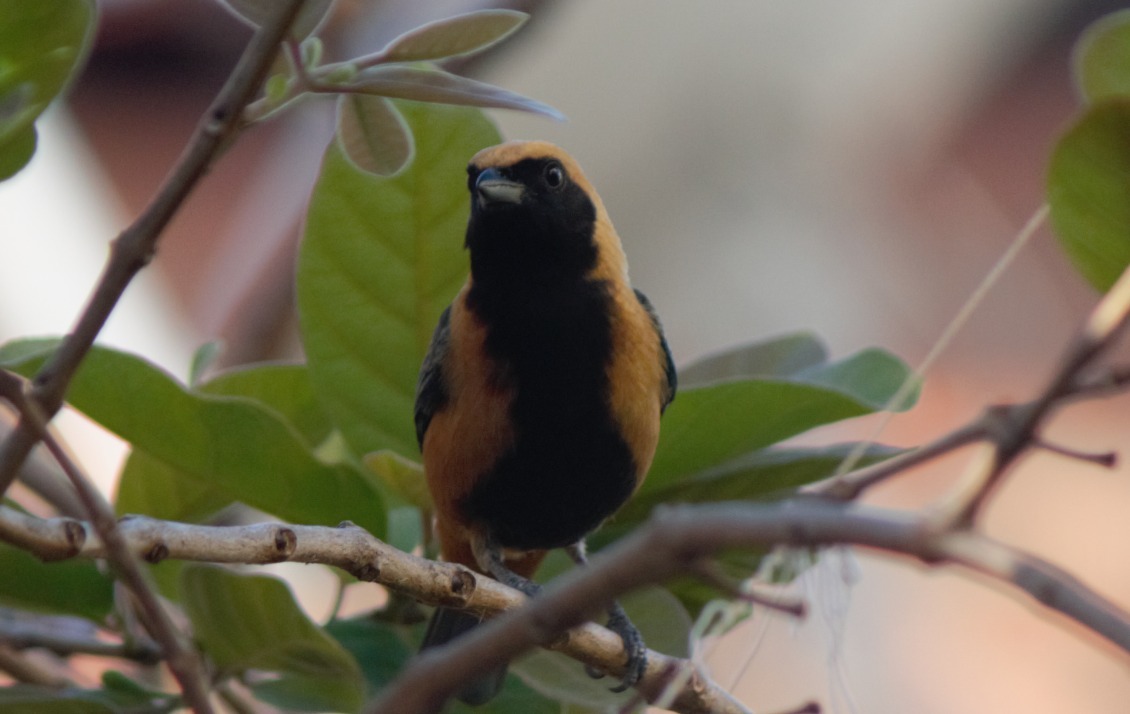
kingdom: Animalia
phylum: Chordata
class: Aves
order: Passeriformes
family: Thraupidae
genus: Stilpnia
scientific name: Stilpnia cayana
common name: Burnished-buff tanager
